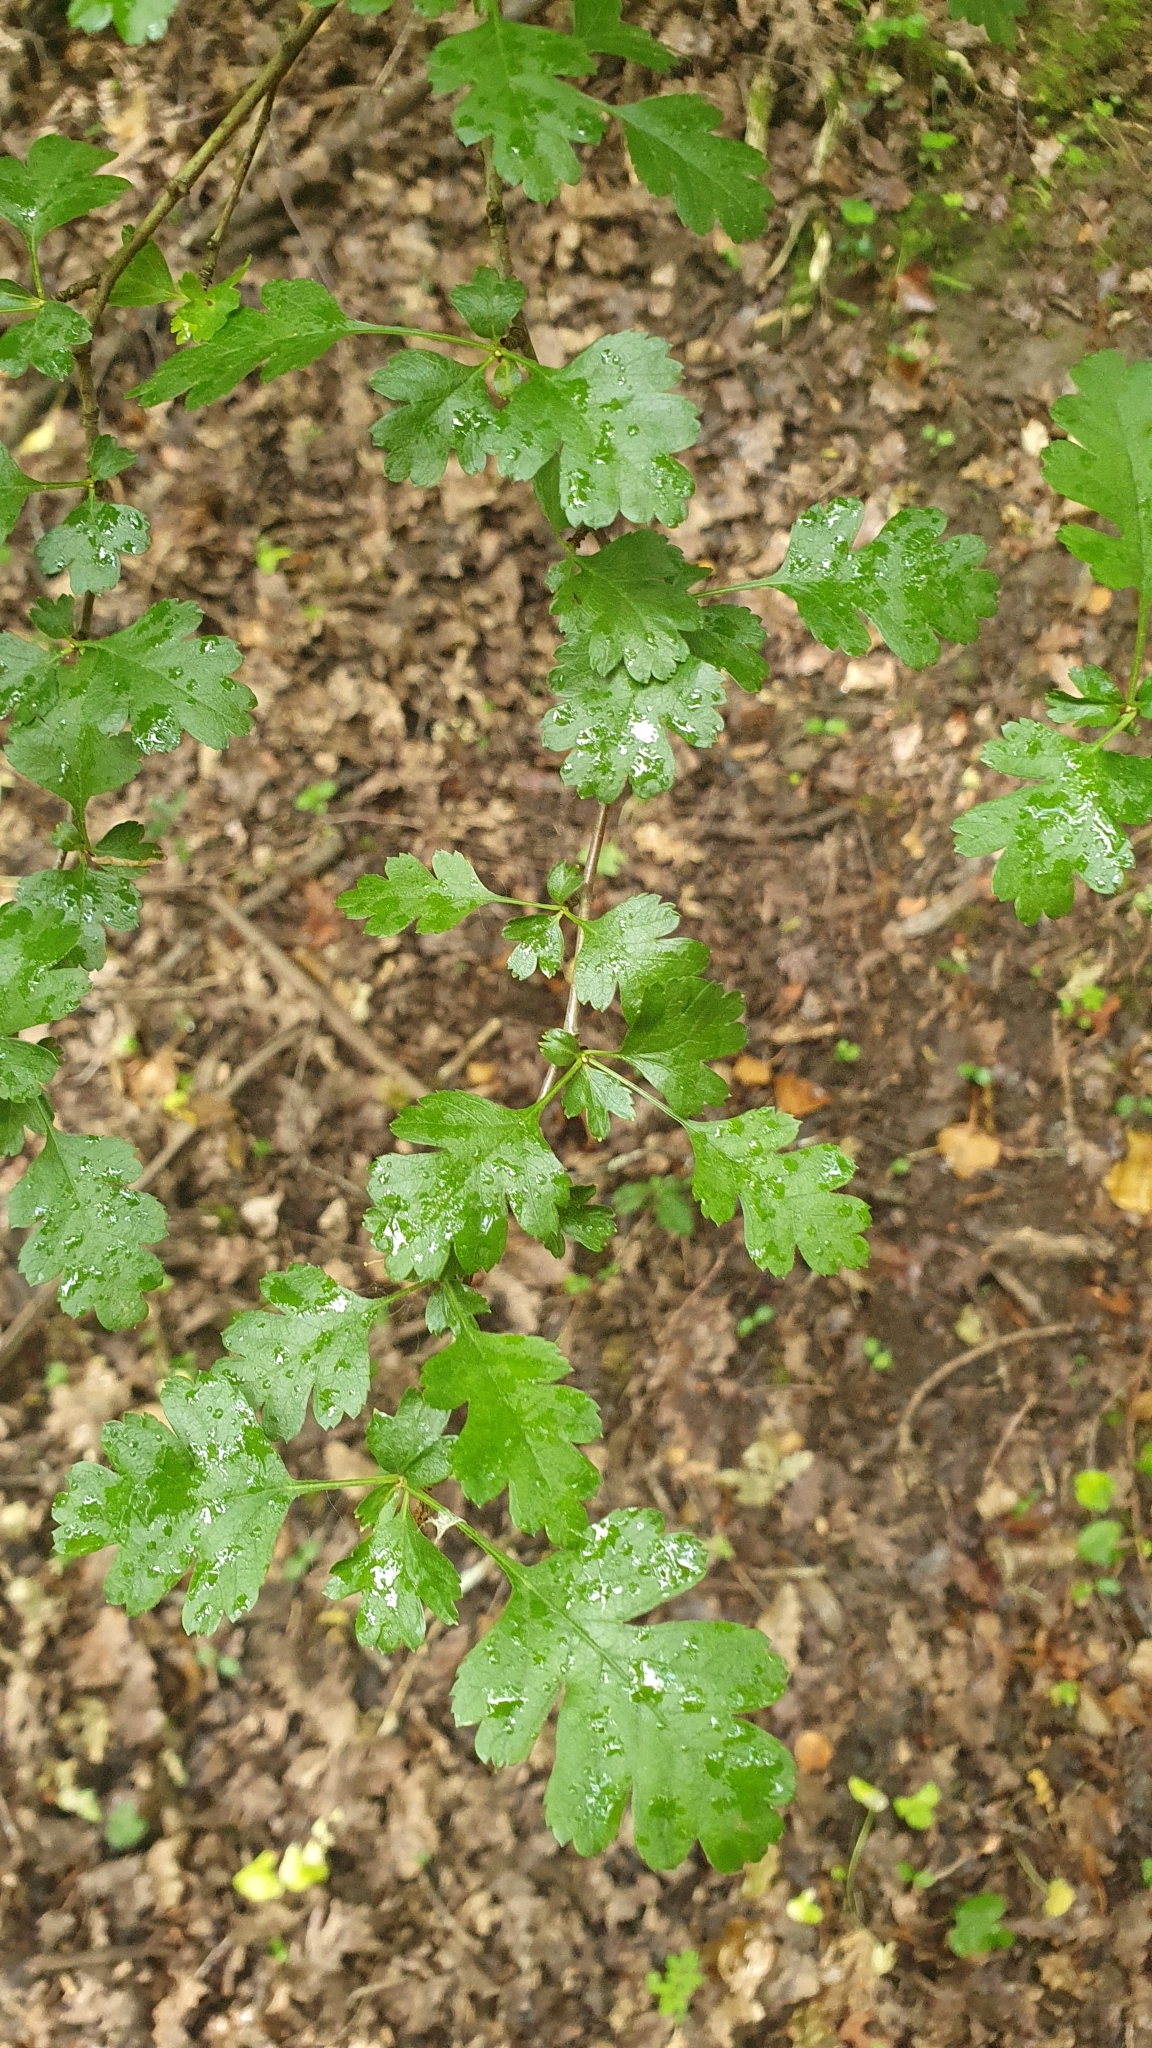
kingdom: Plantae
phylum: Tracheophyta
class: Magnoliopsida
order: Rosales
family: Rosaceae
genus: Crataegus
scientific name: Crataegus monogyna
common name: Hawthorn
